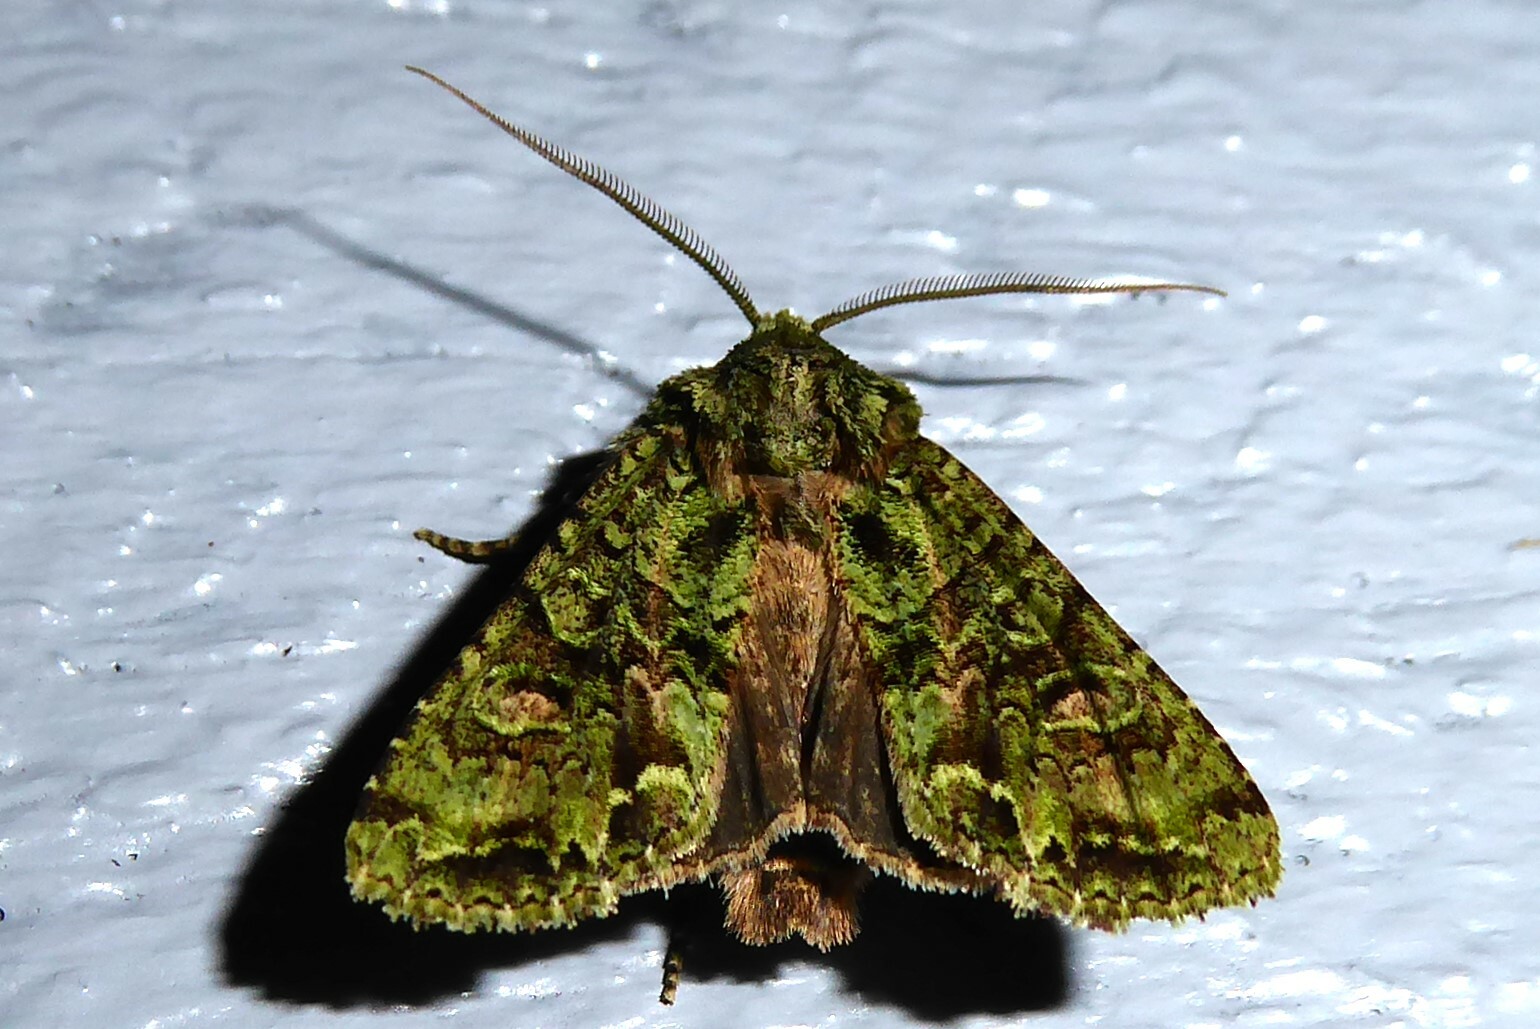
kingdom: Animalia
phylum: Arthropoda
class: Insecta
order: Lepidoptera
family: Noctuidae
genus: Ichneutica
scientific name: Ichneutica
